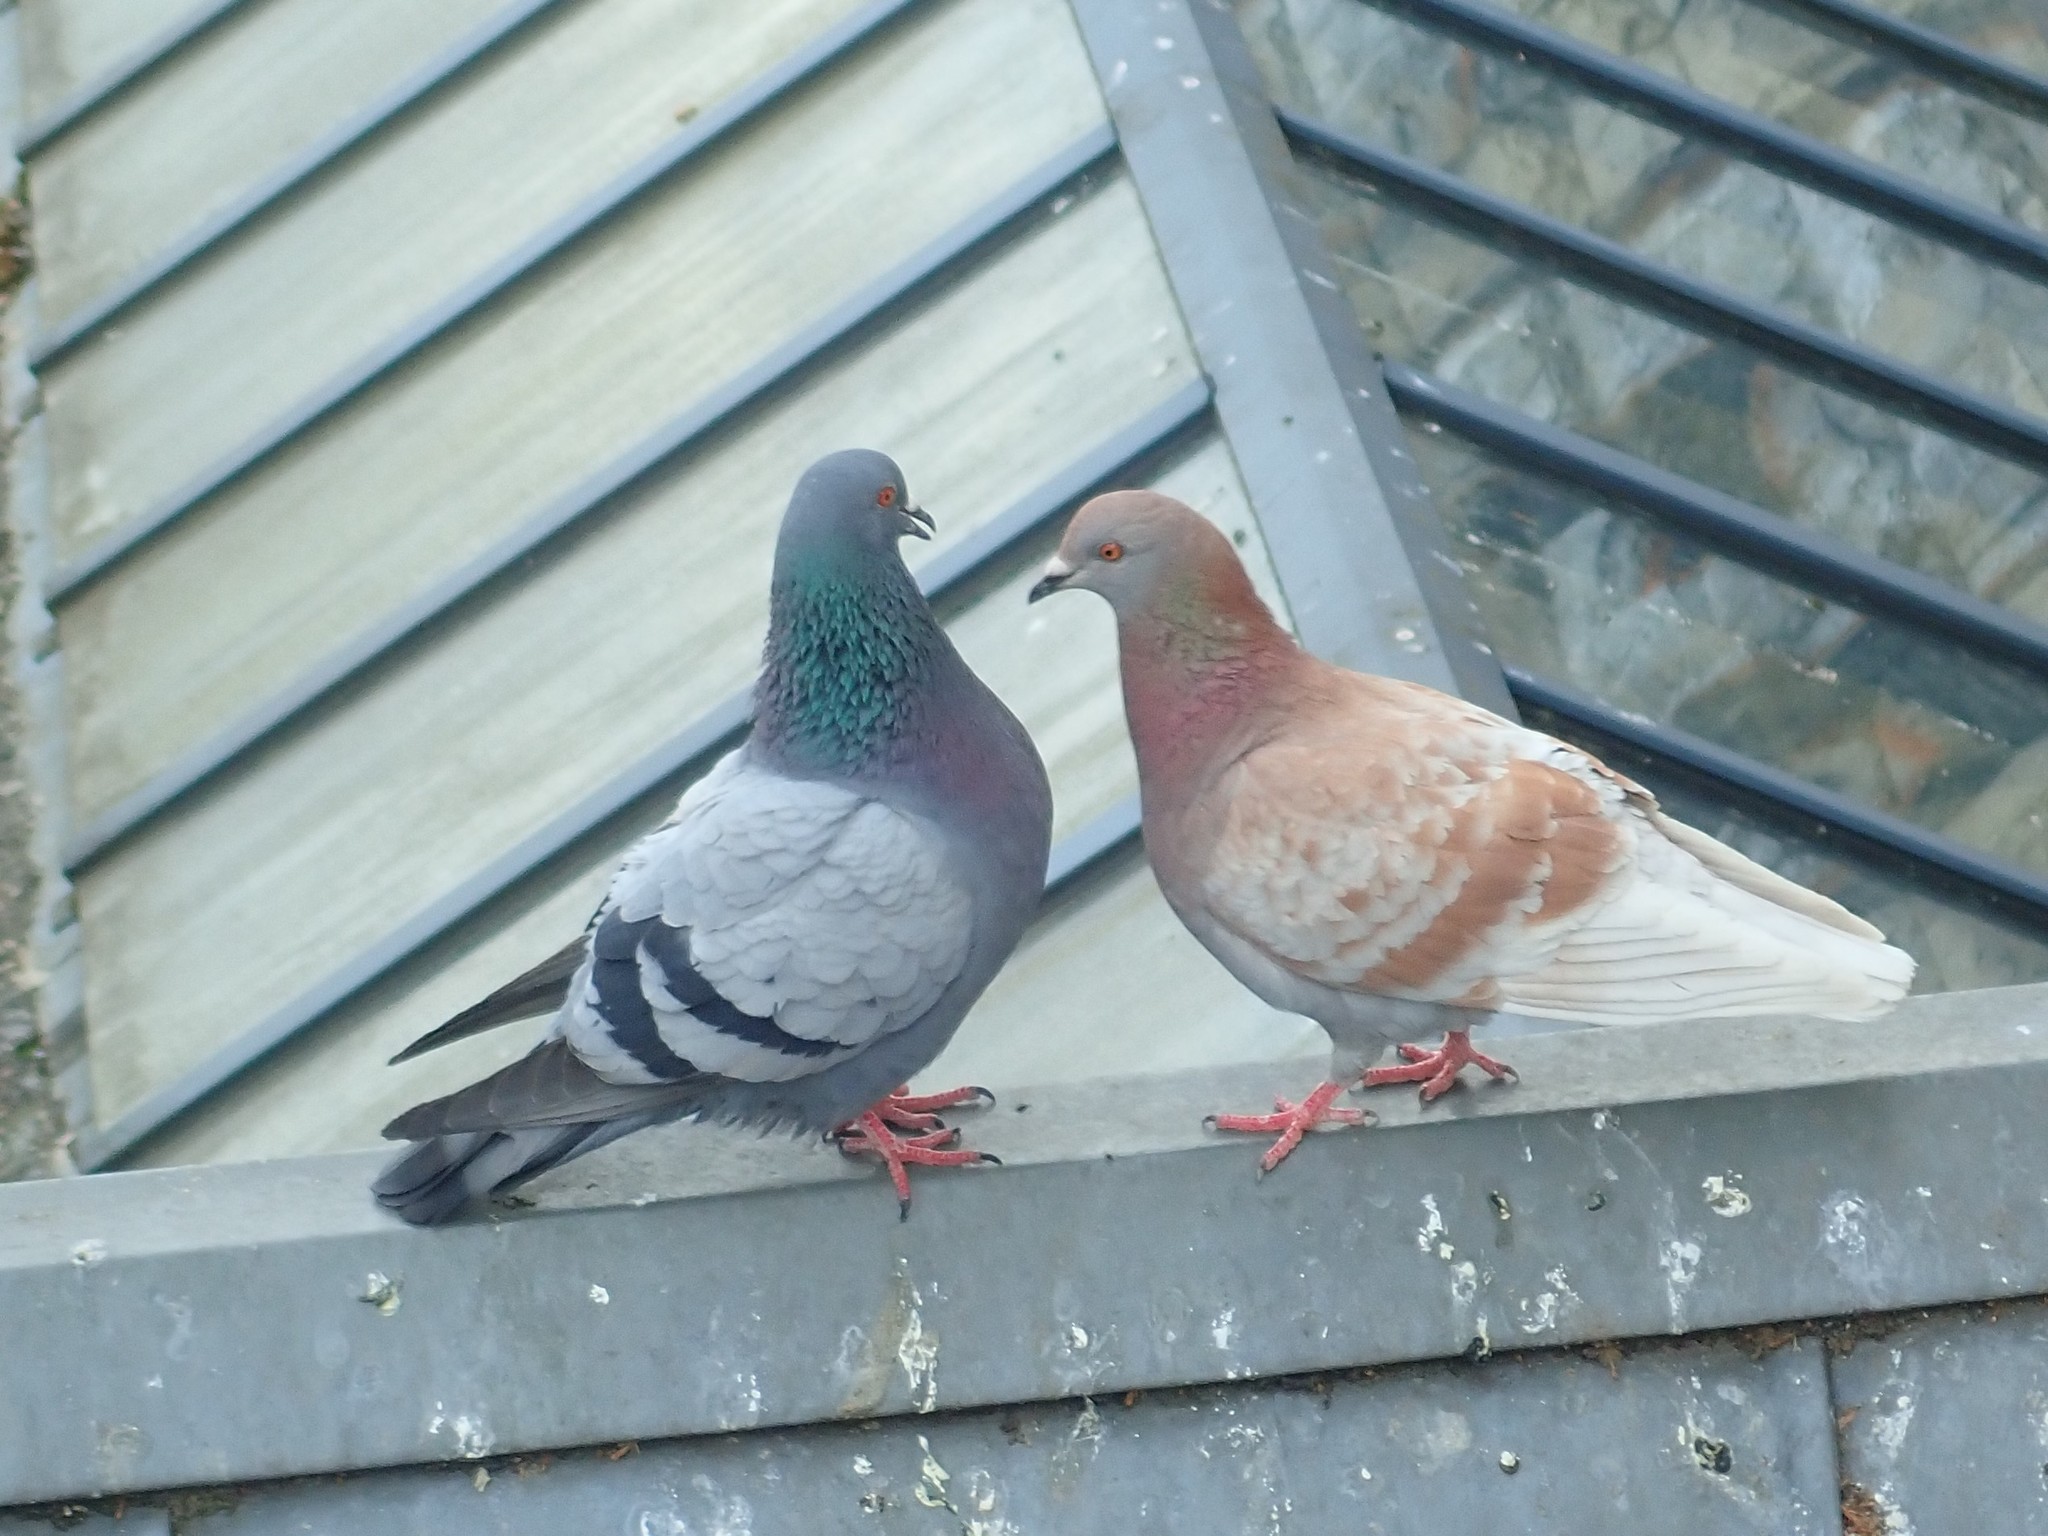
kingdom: Animalia
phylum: Chordata
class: Aves
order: Columbiformes
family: Columbidae
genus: Columba
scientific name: Columba livia
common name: Rock pigeon
